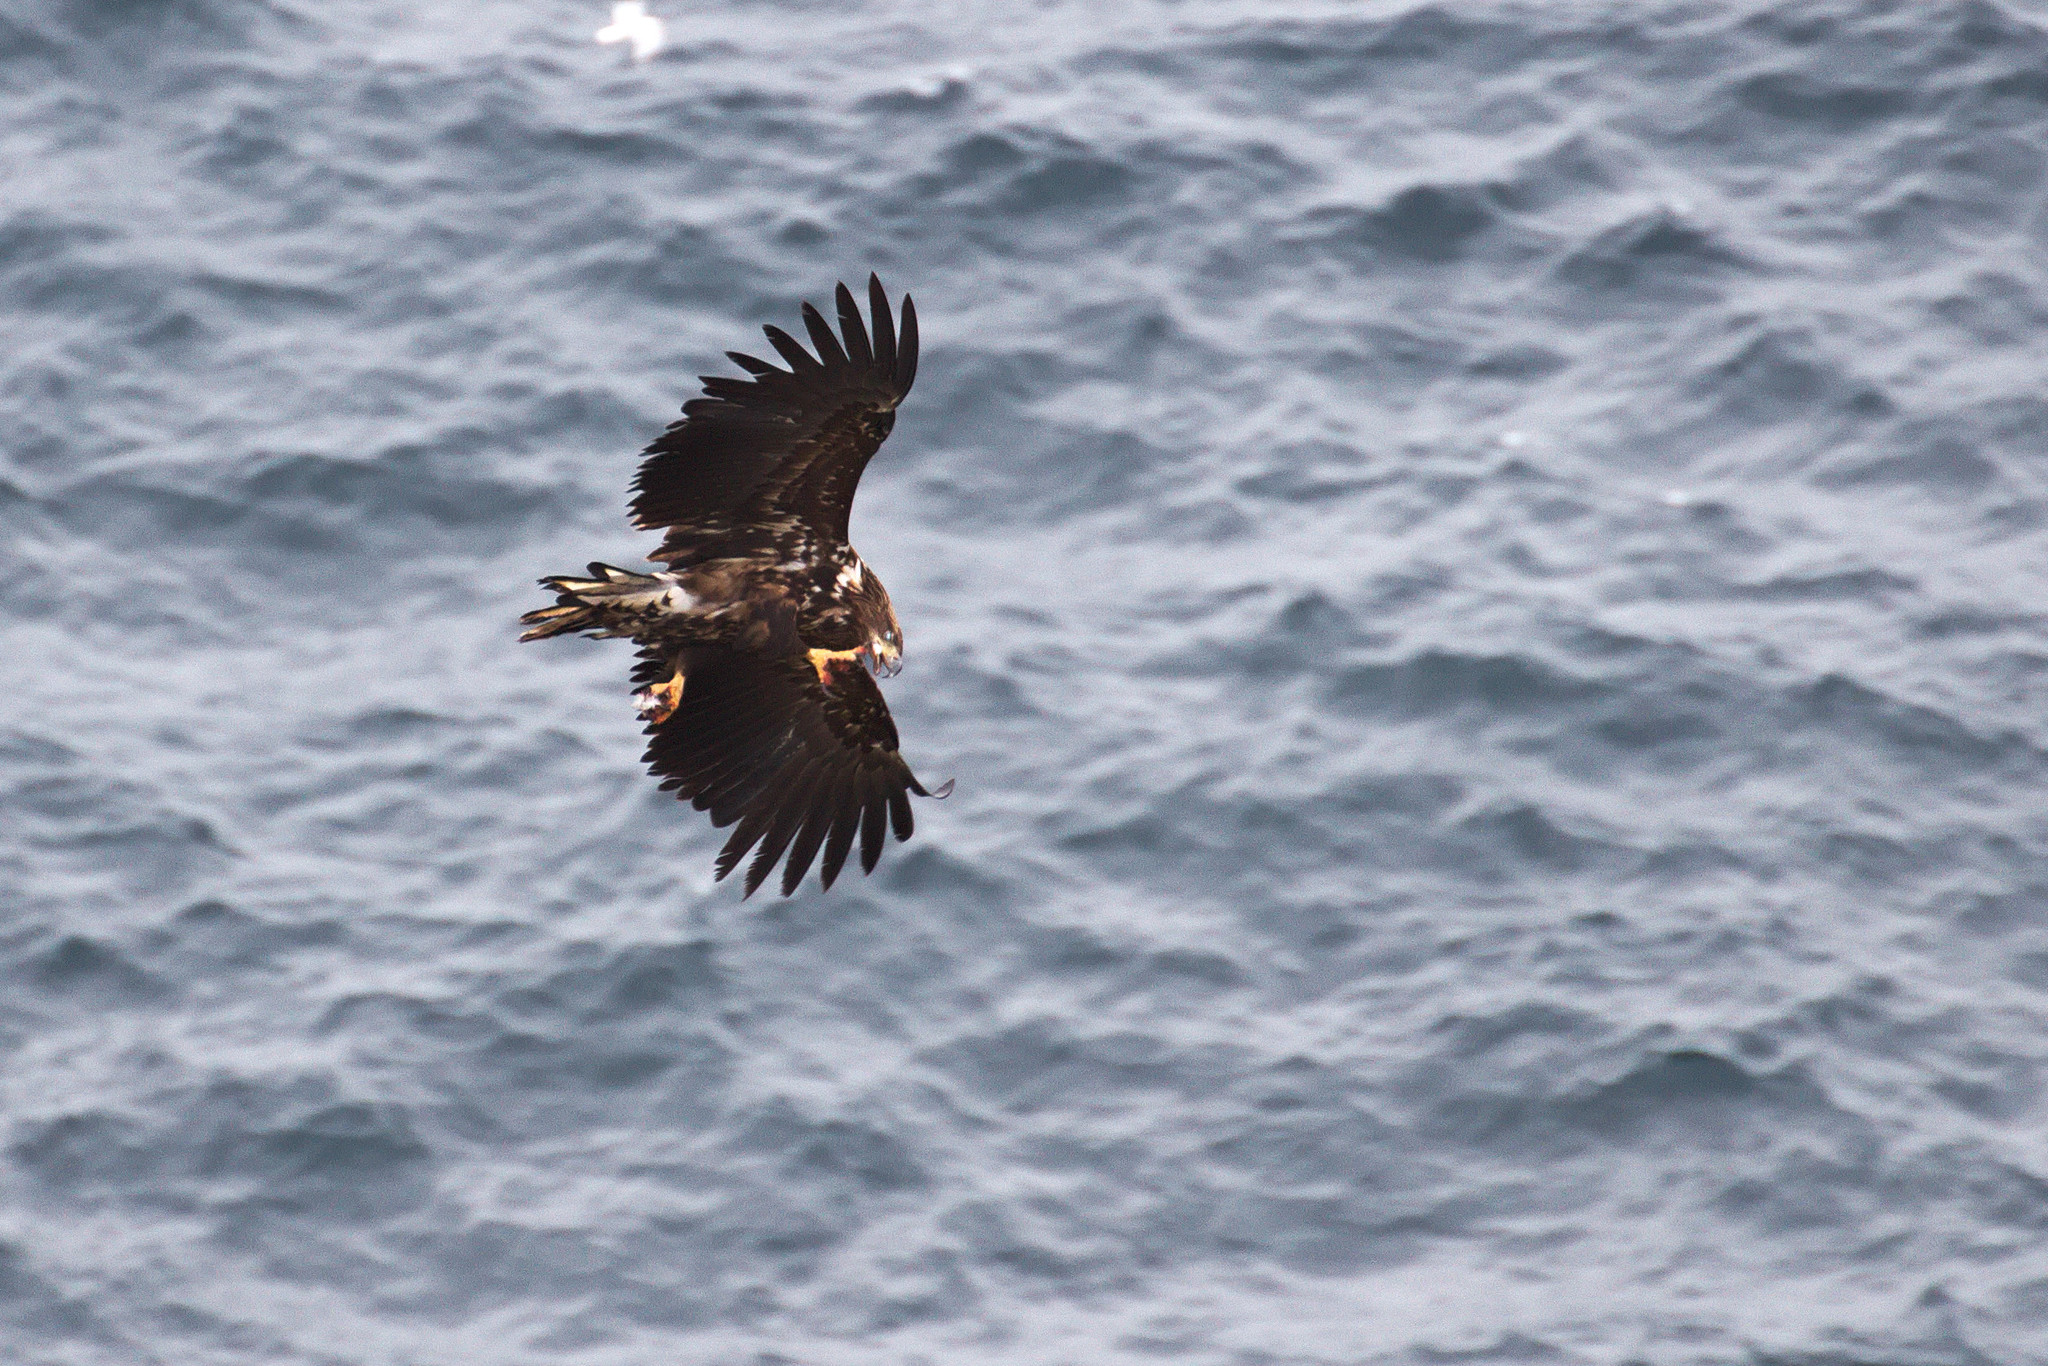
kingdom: Animalia
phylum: Chordata
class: Aves
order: Accipitriformes
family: Accipitridae
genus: Haliaeetus
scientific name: Haliaeetus albicilla
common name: White-tailed eagle
